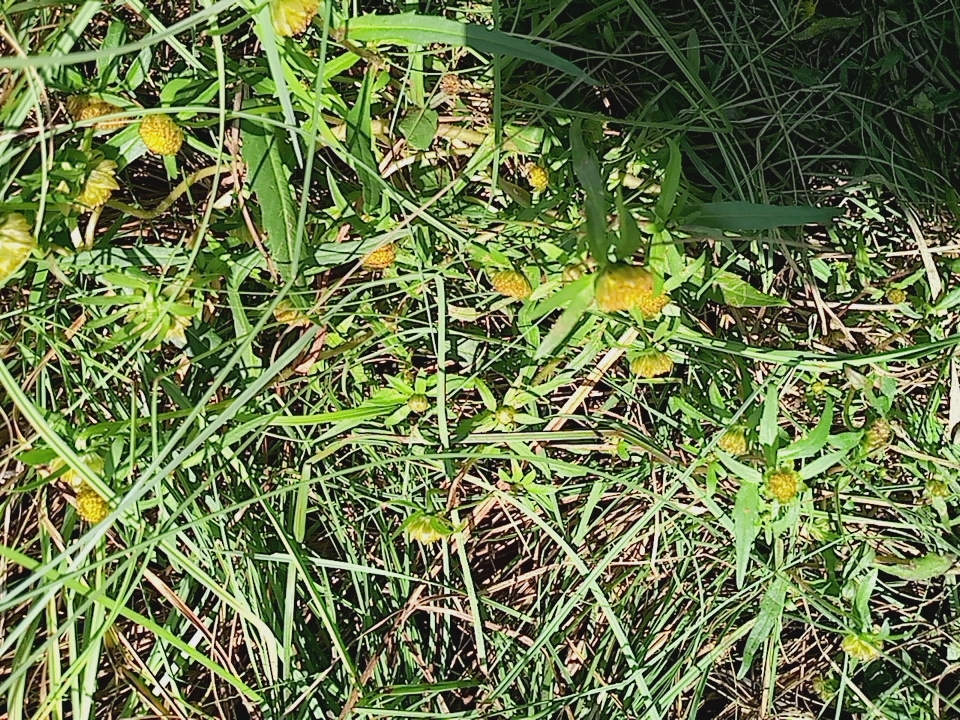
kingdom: Plantae
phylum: Tracheophyta
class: Magnoliopsida
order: Asterales
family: Asteraceae
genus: Bidens
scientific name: Bidens cernua
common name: Nodding bur-marigold
